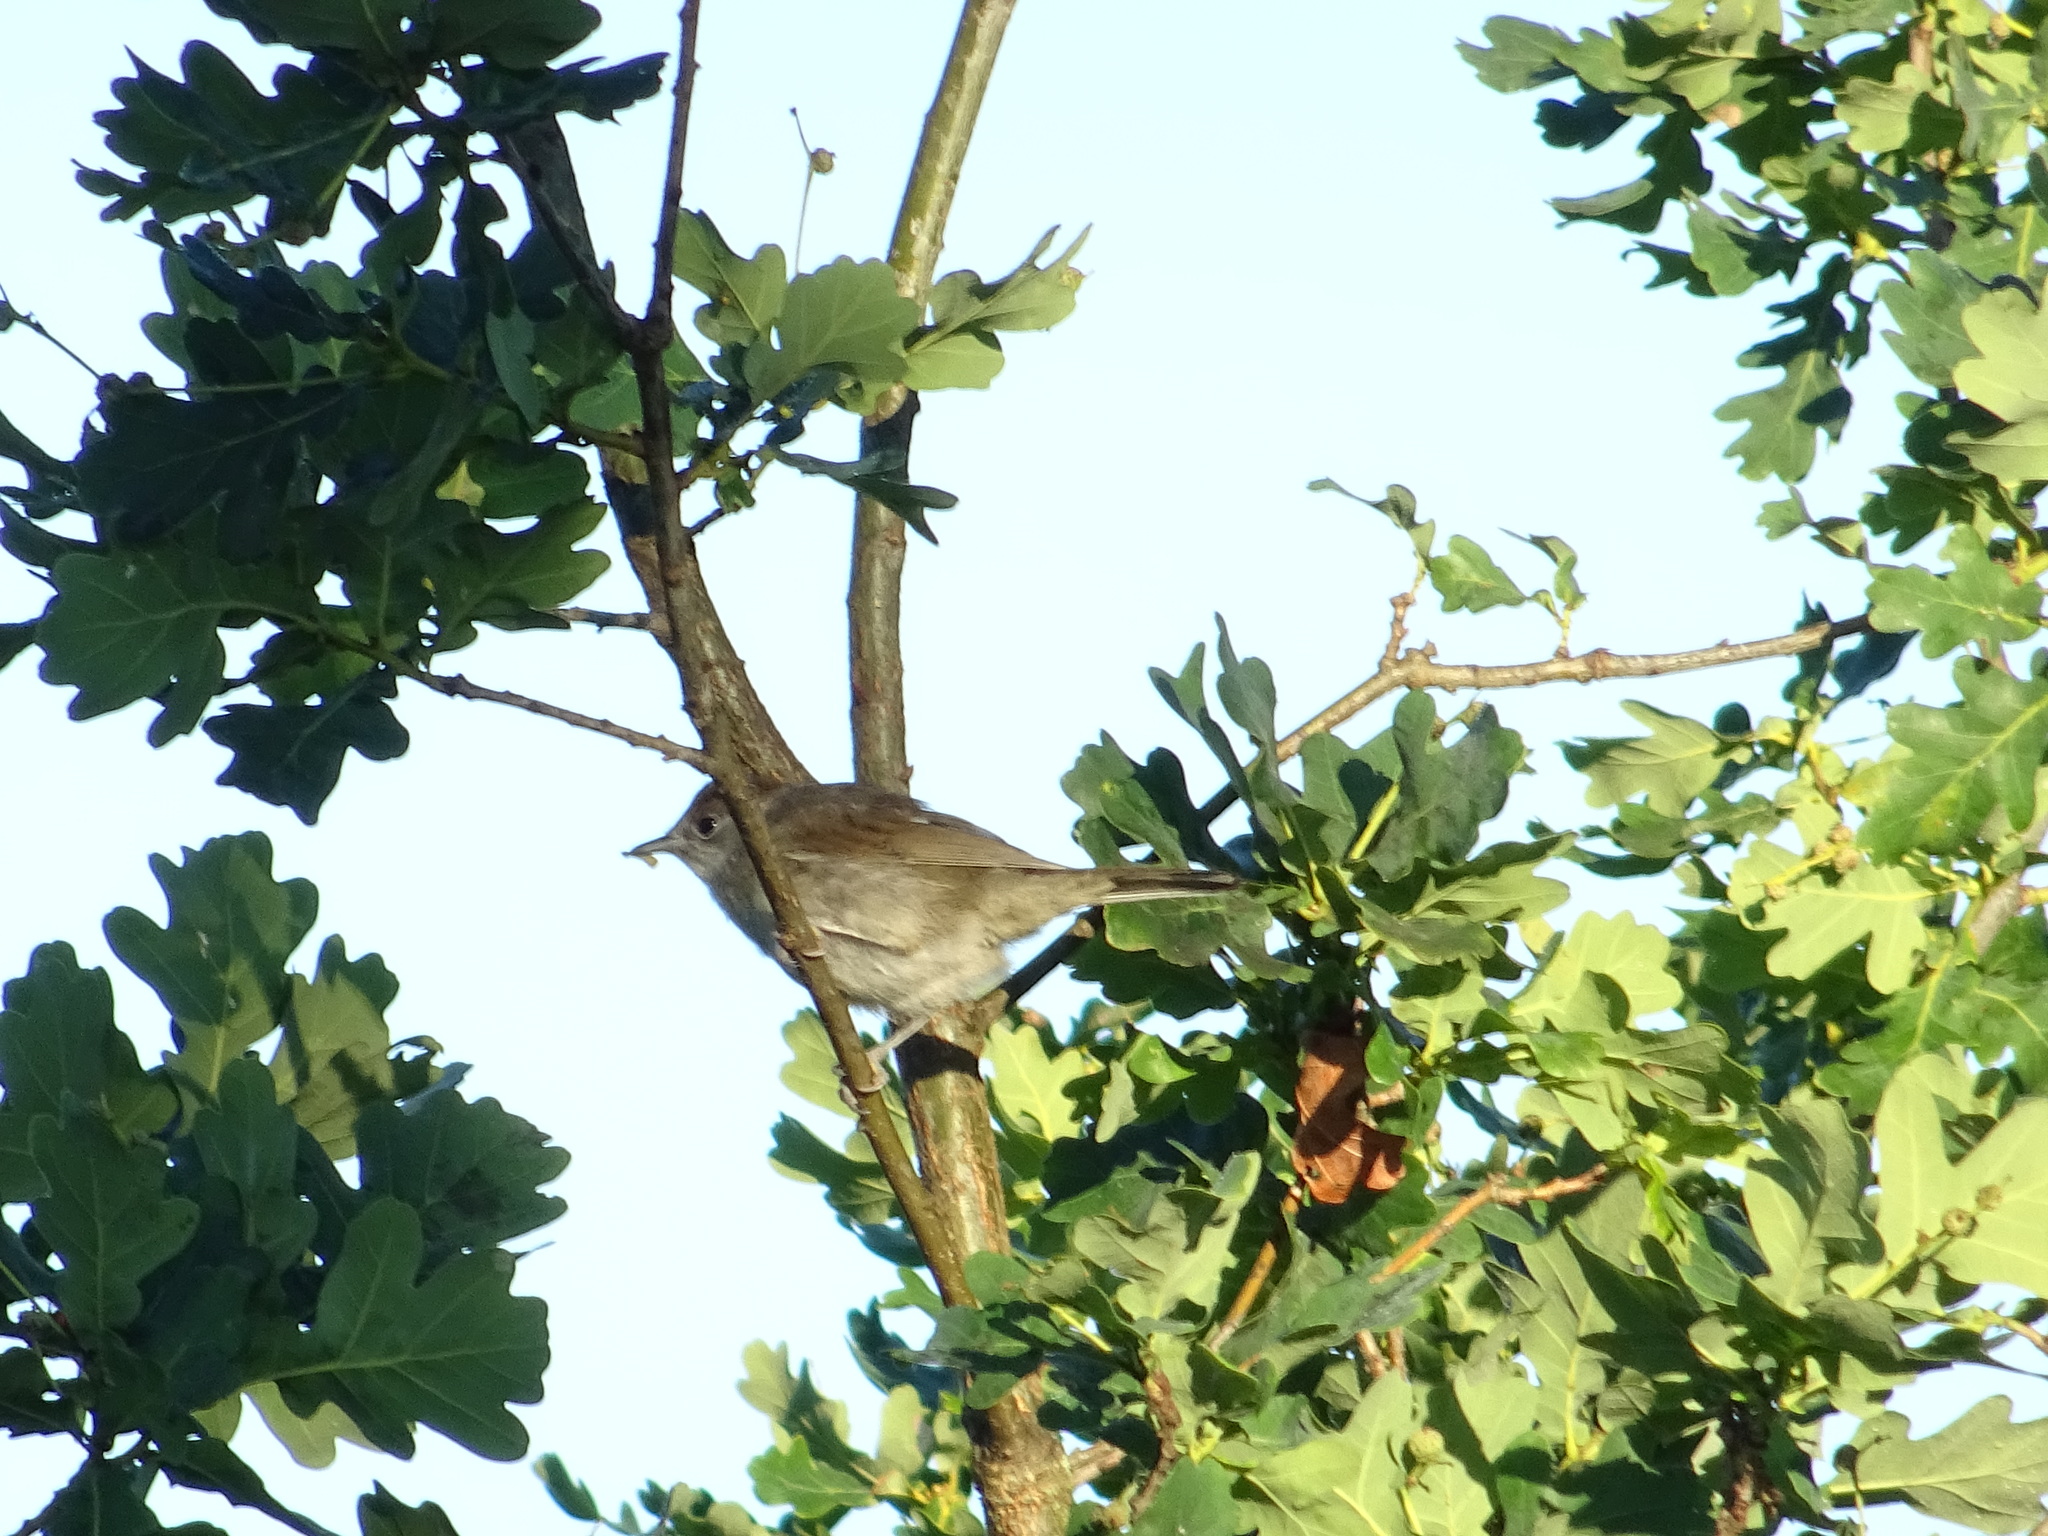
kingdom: Animalia
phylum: Chordata
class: Aves
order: Passeriformes
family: Sylviidae
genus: Sylvia
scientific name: Sylvia atricapilla
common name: Eurasian blackcap
